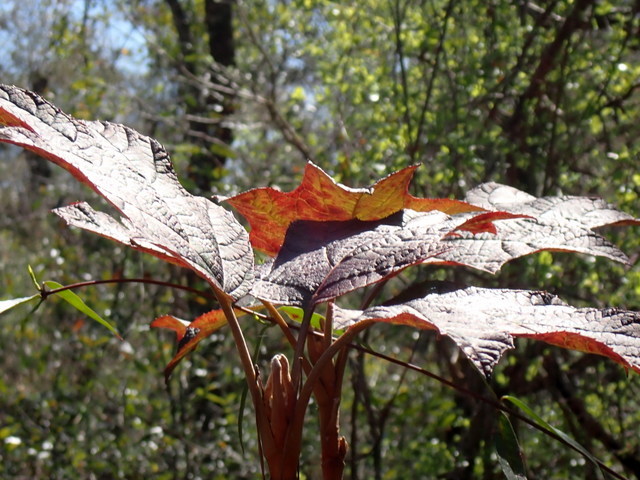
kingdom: Plantae
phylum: Tracheophyta
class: Magnoliopsida
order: Cornales
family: Hydrangeaceae
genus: Hydrangea
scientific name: Hydrangea quercifolia
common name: Oak-leaf hydrangea
